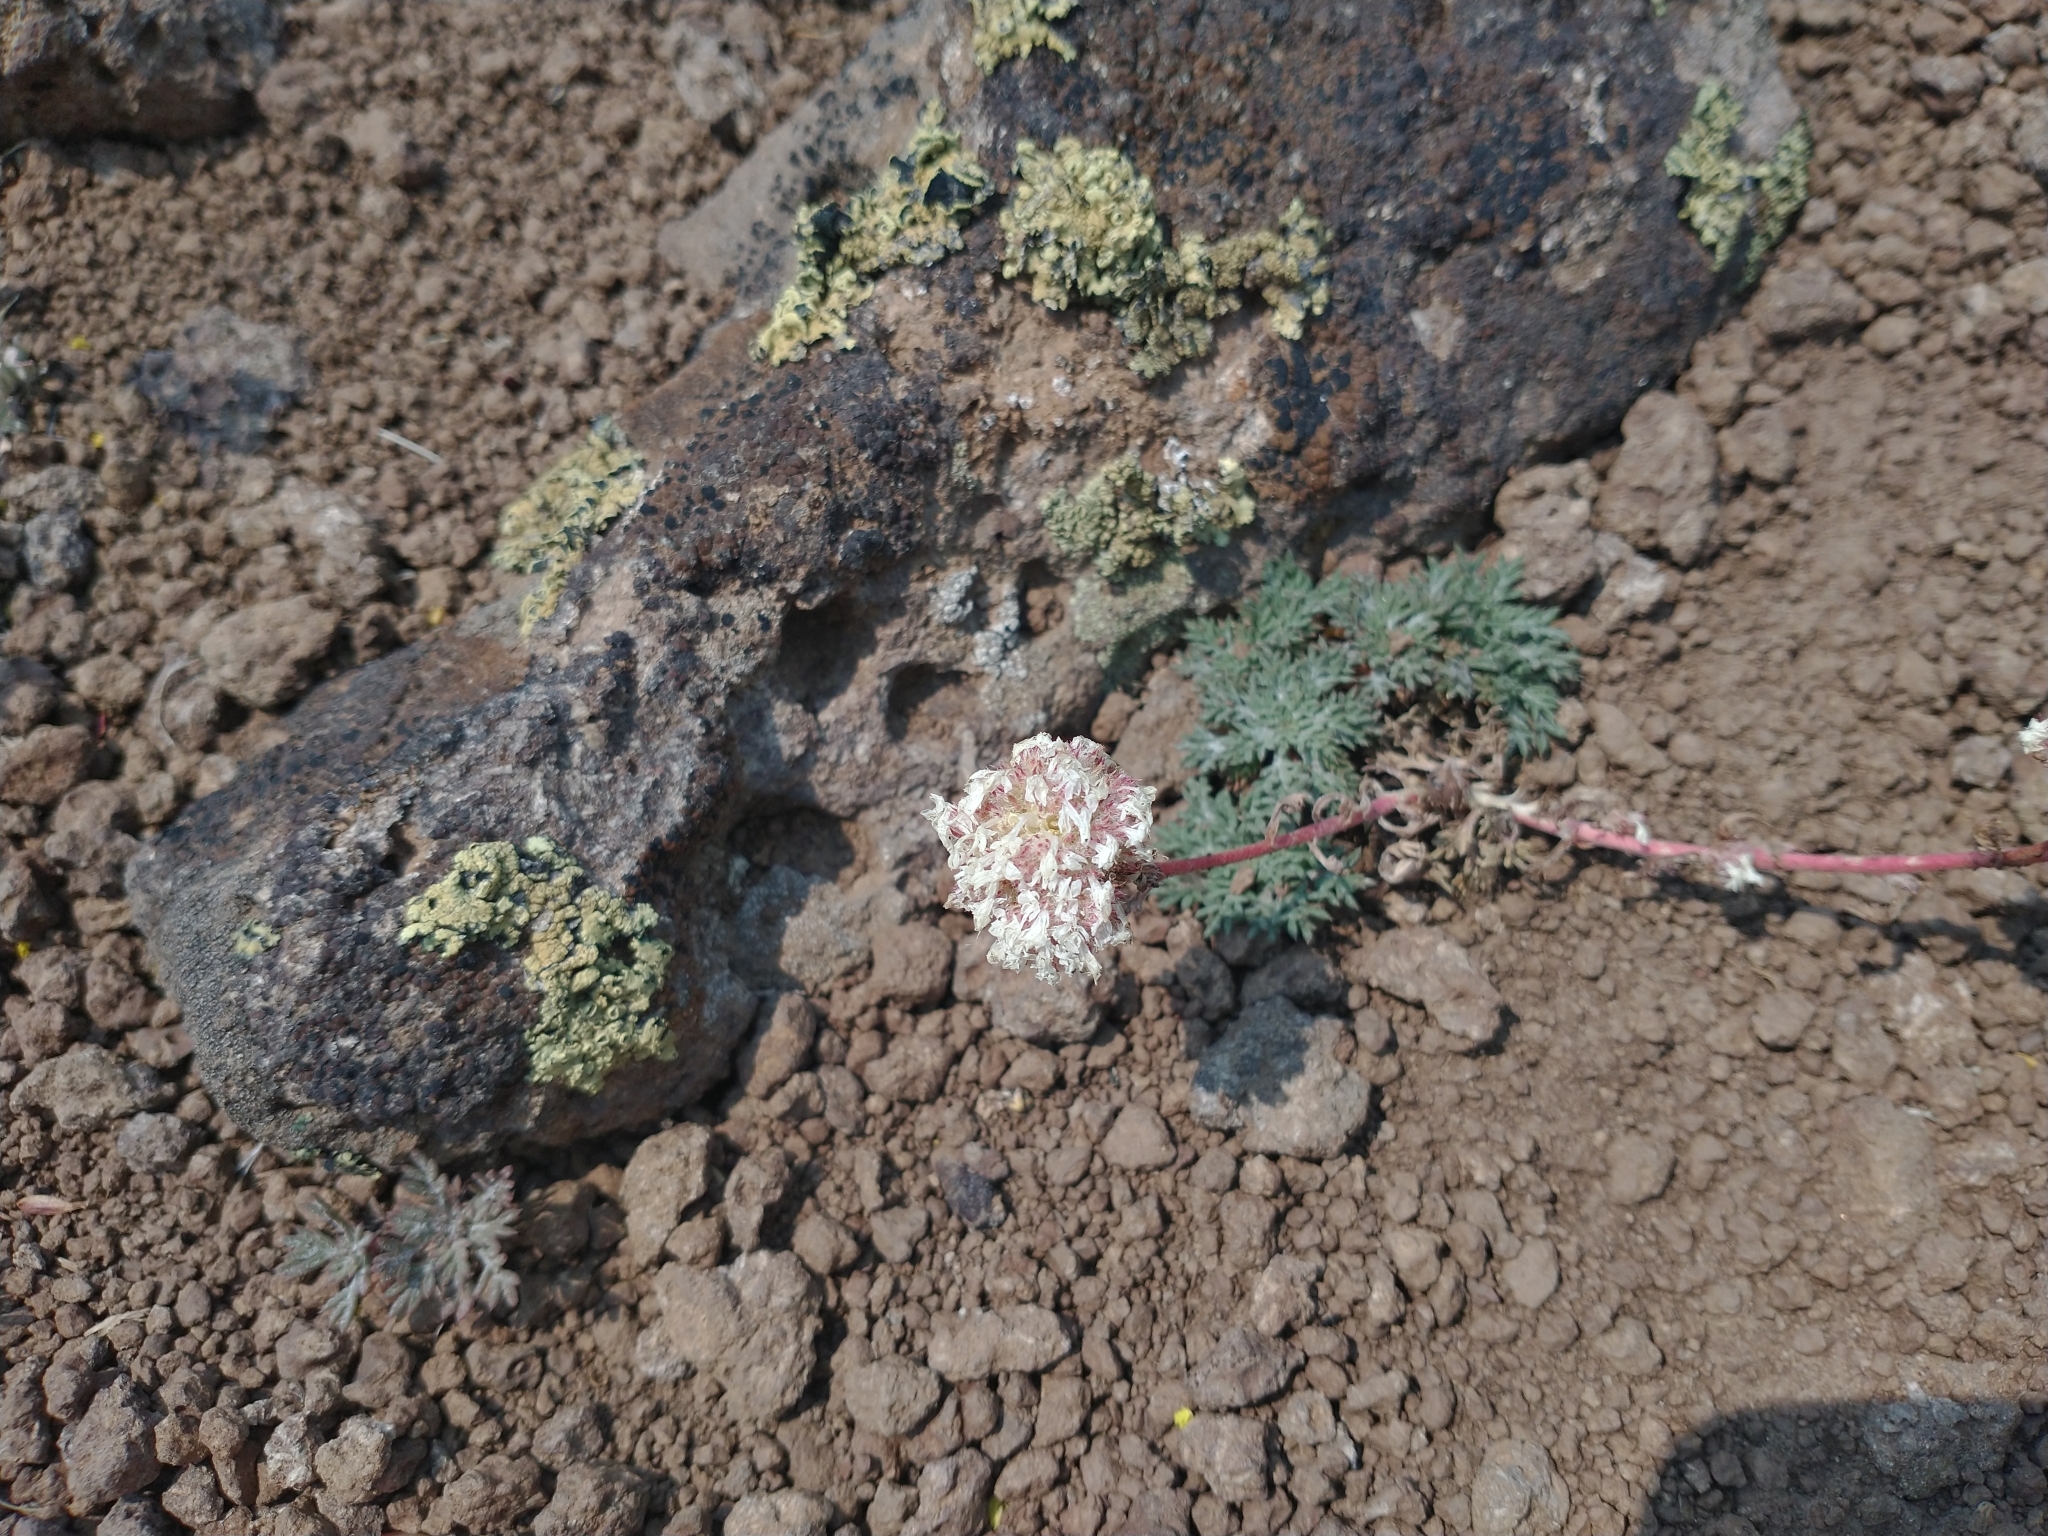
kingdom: Plantae
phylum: Tracheophyta
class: Magnoliopsida
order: Ericales
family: Polemoniaceae
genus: Ipomopsis
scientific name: Ipomopsis congesta
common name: Ball-head gilia
